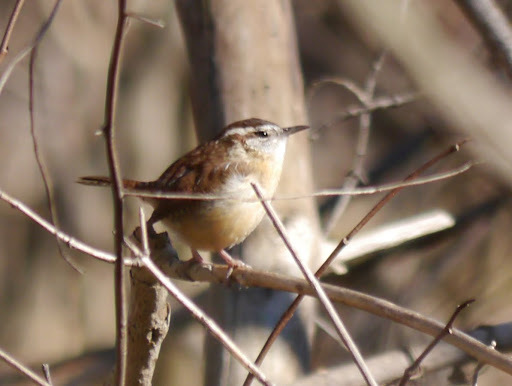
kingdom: Animalia
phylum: Chordata
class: Aves
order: Passeriformes
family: Troglodytidae
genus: Thryothorus
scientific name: Thryothorus ludovicianus
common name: Carolina wren
